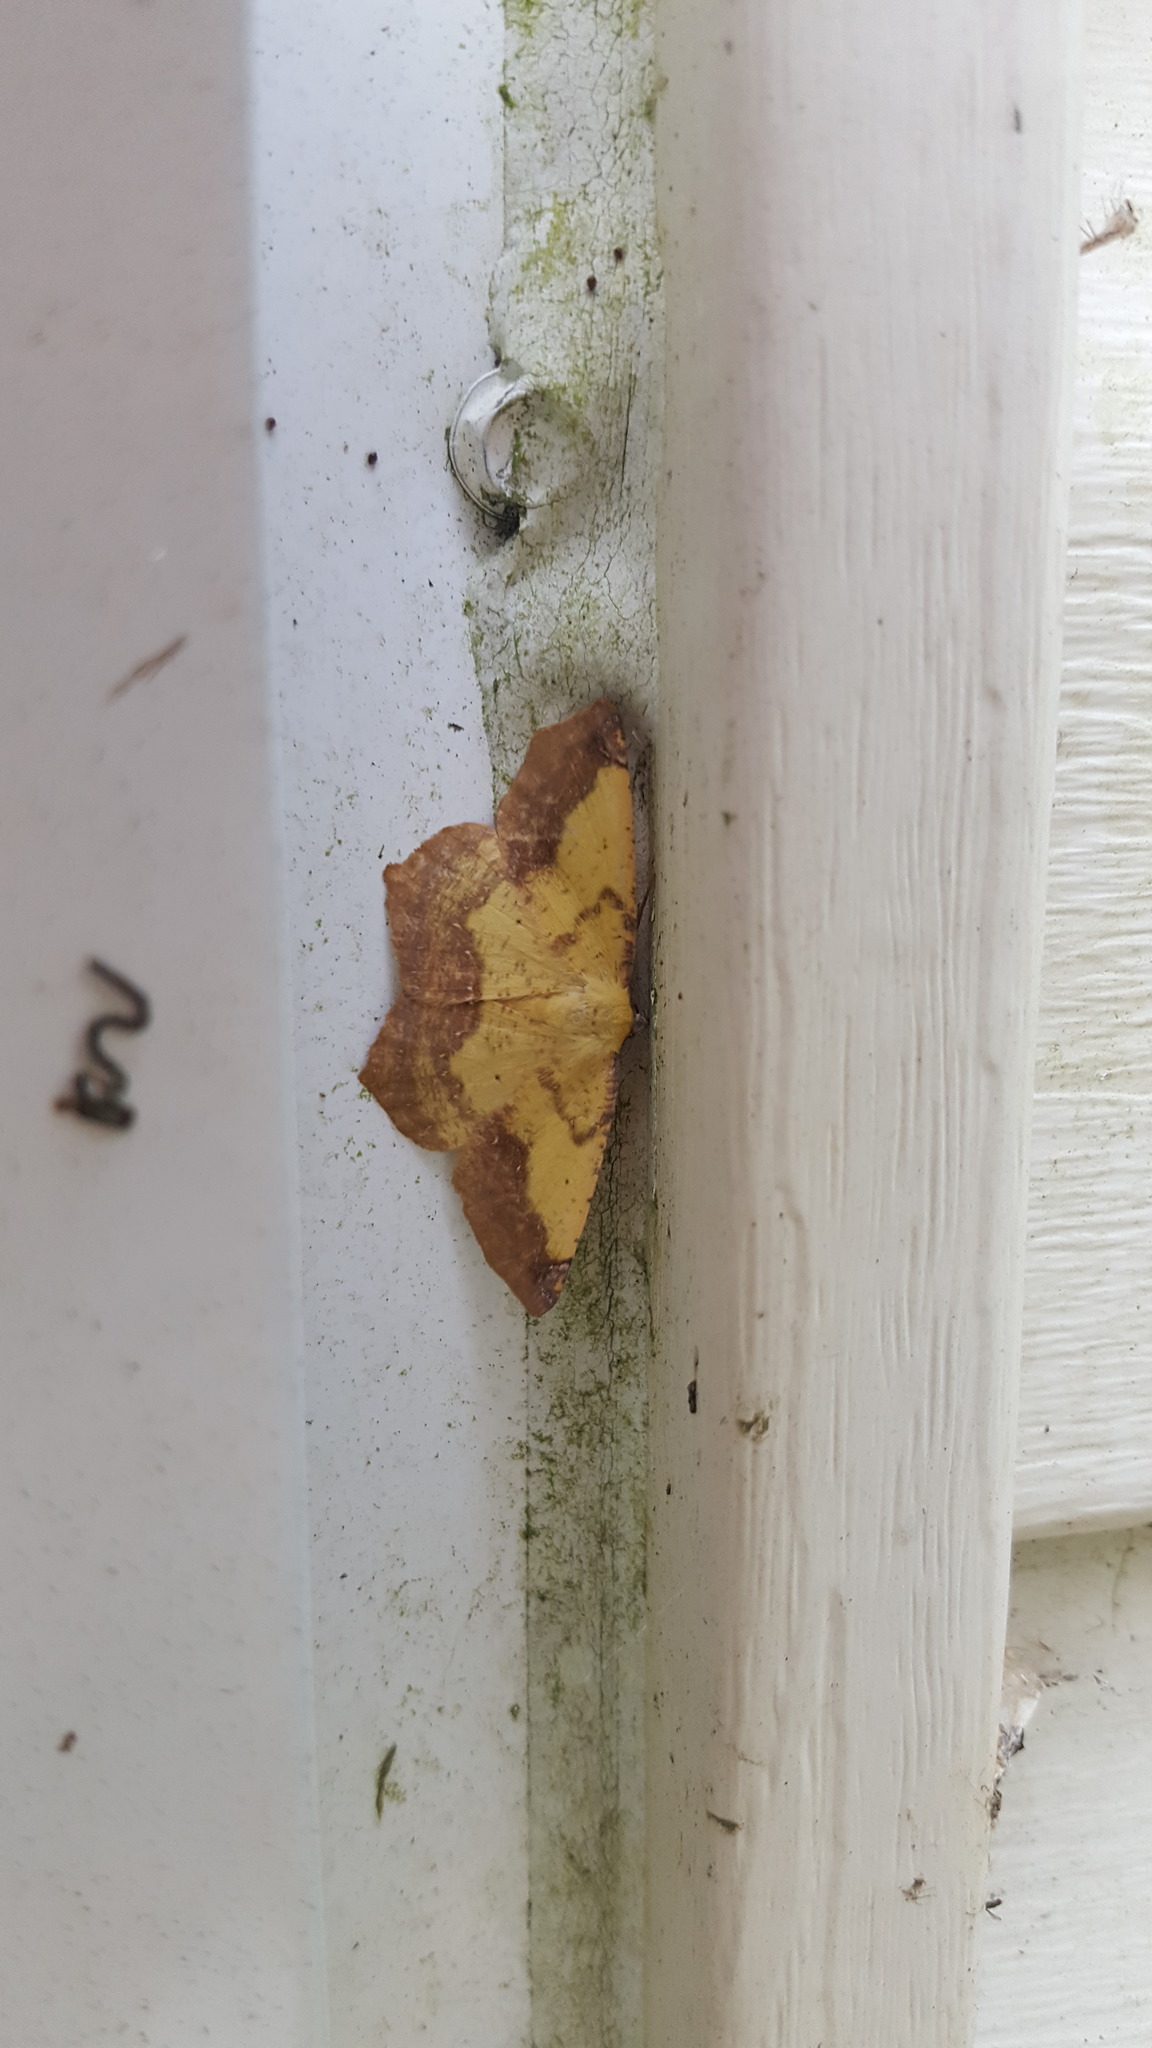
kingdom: Animalia
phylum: Arthropoda
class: Insecta
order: Lepidoptera
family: Geometridae
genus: Antepione
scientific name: Antepione thisoaria
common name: Variable antipione
